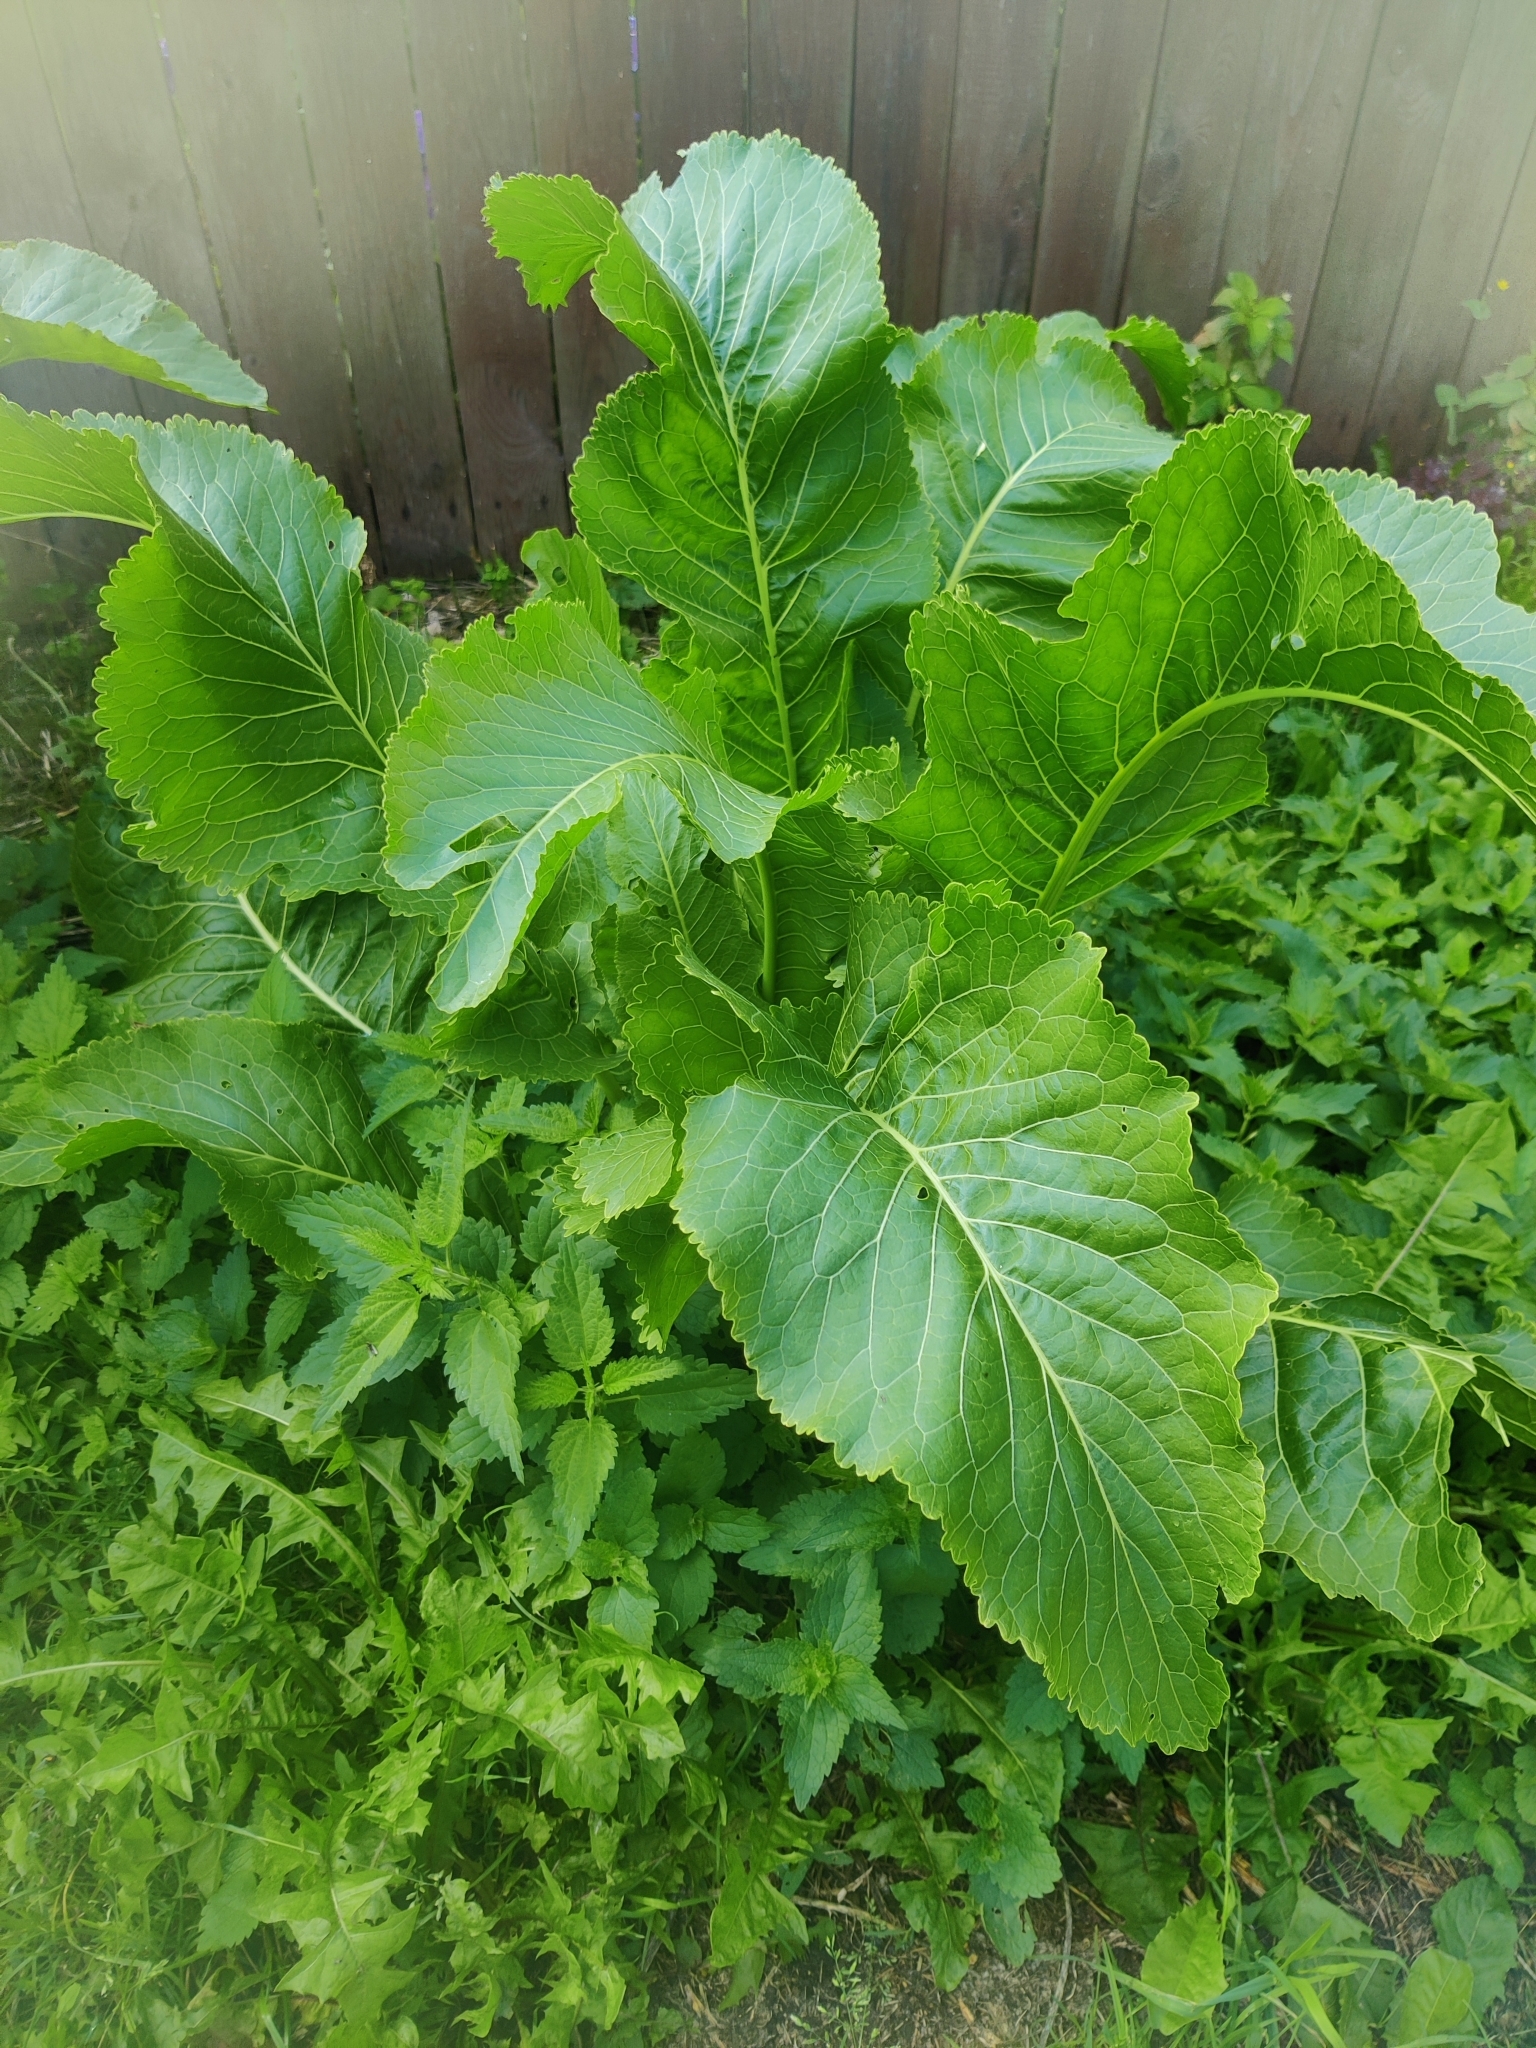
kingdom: Plantae
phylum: Tracheophyta
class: Magnoliopsida
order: Brassicales
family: Brassicaceae
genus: Armoracia
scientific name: Armoracia rusticana
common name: Horseradish
